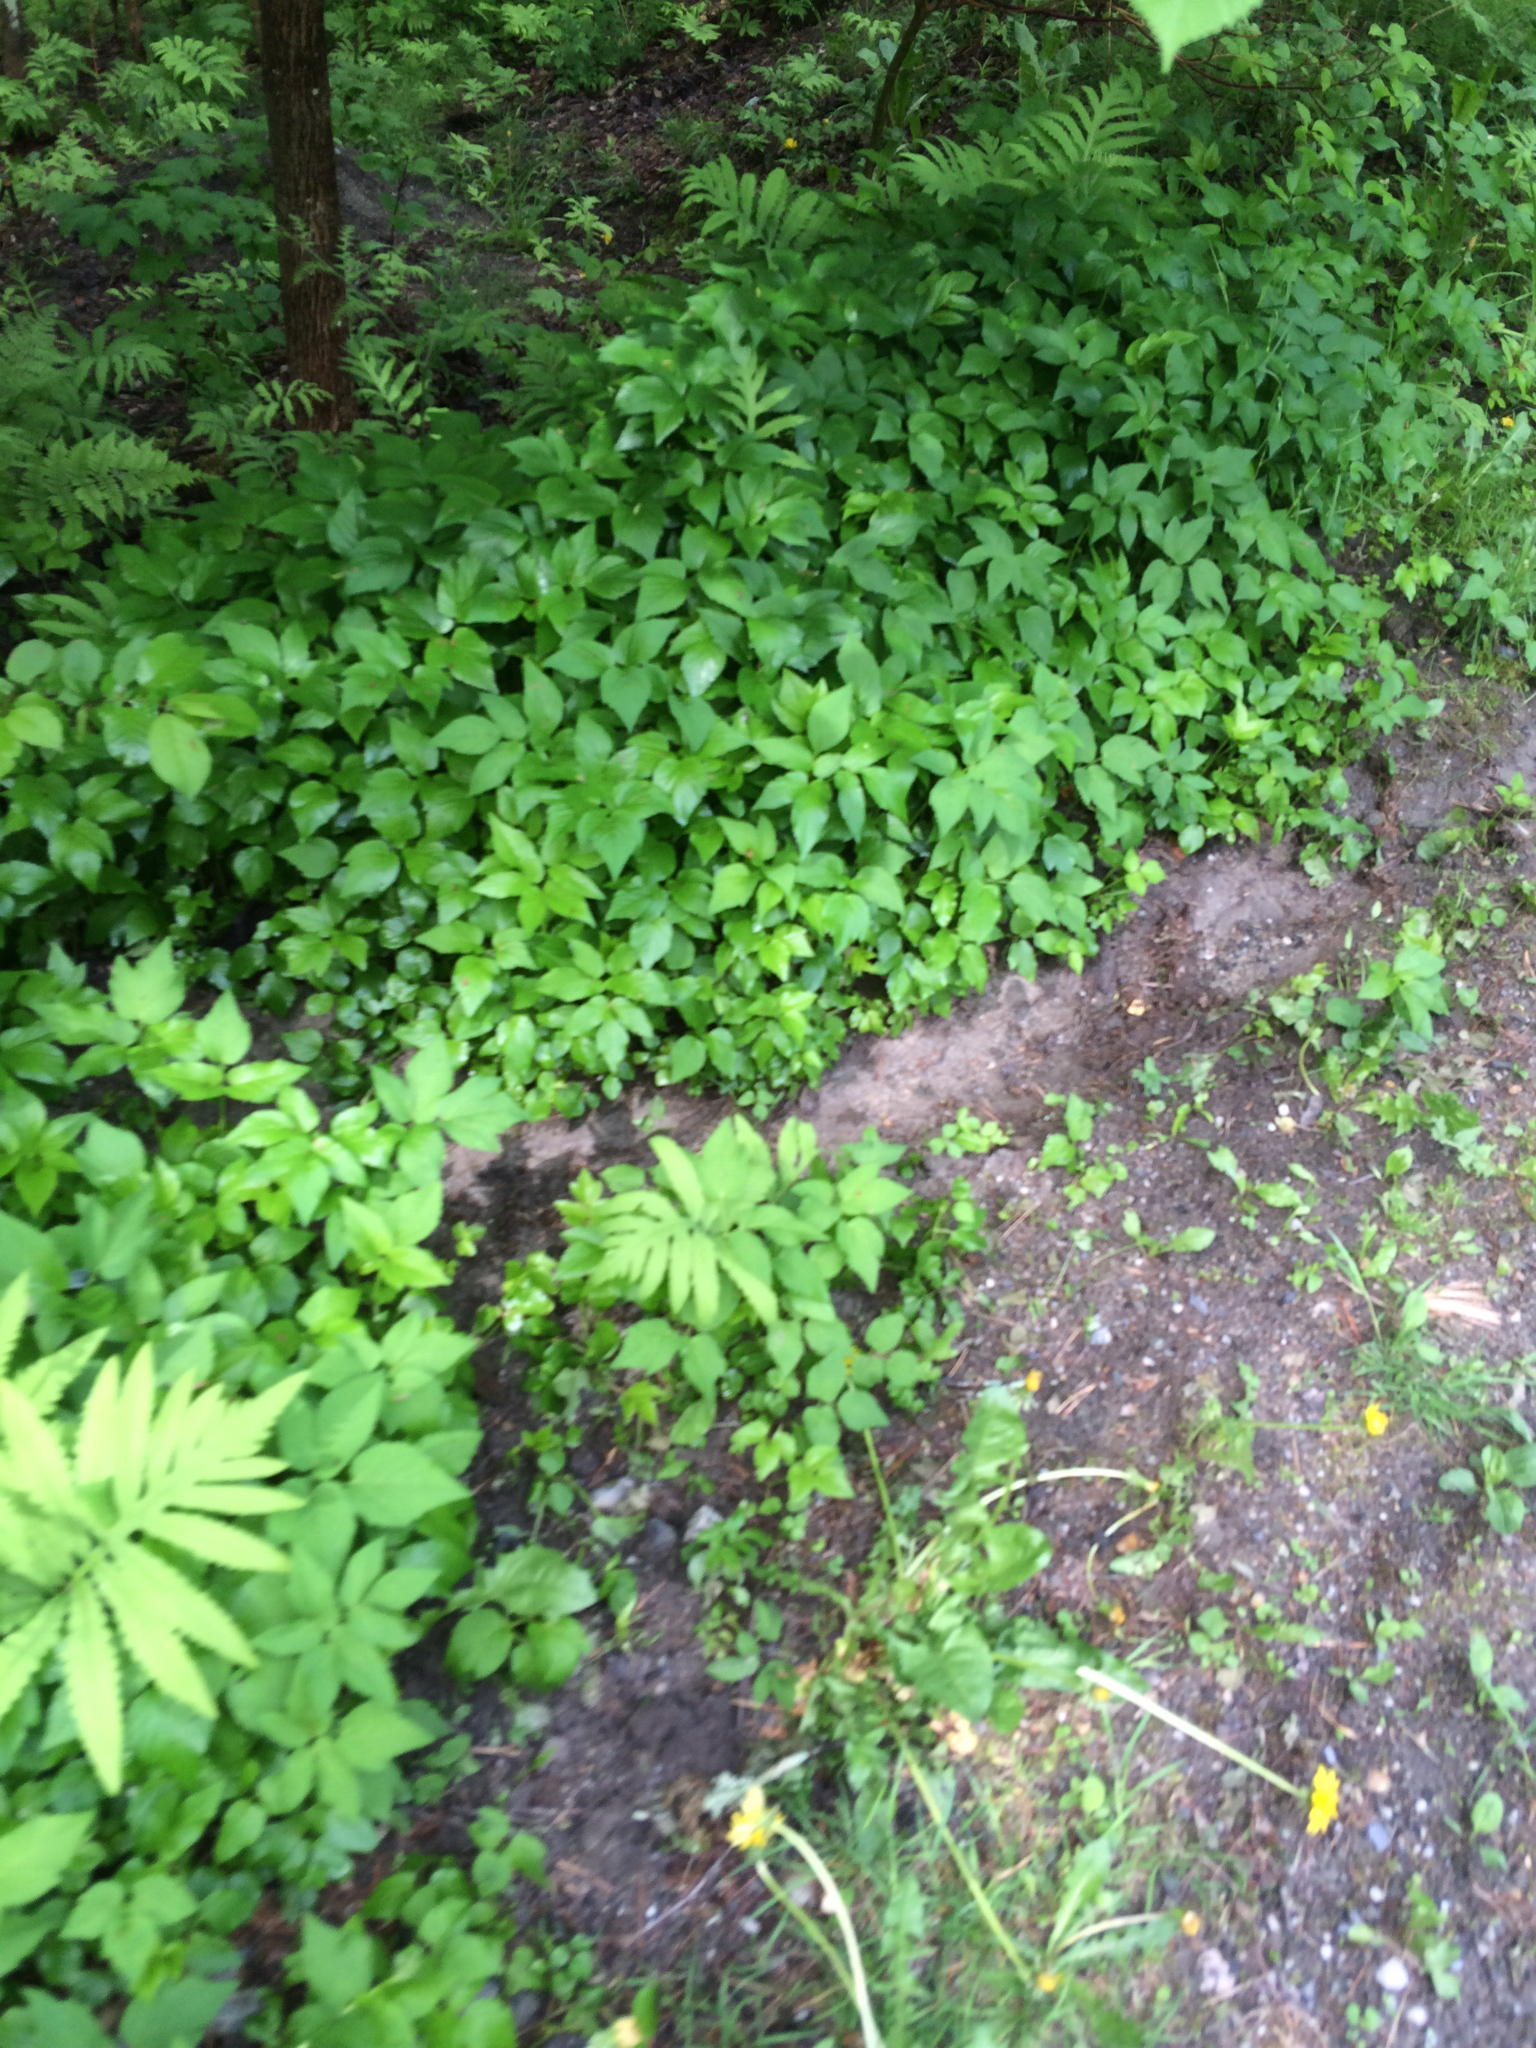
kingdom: Plantae
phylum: Tracheophyta
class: Magnoliopsida
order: Apiales
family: Apiaceae
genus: Aegopodium
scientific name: Aegopodium podagraria
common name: Ground-elder
